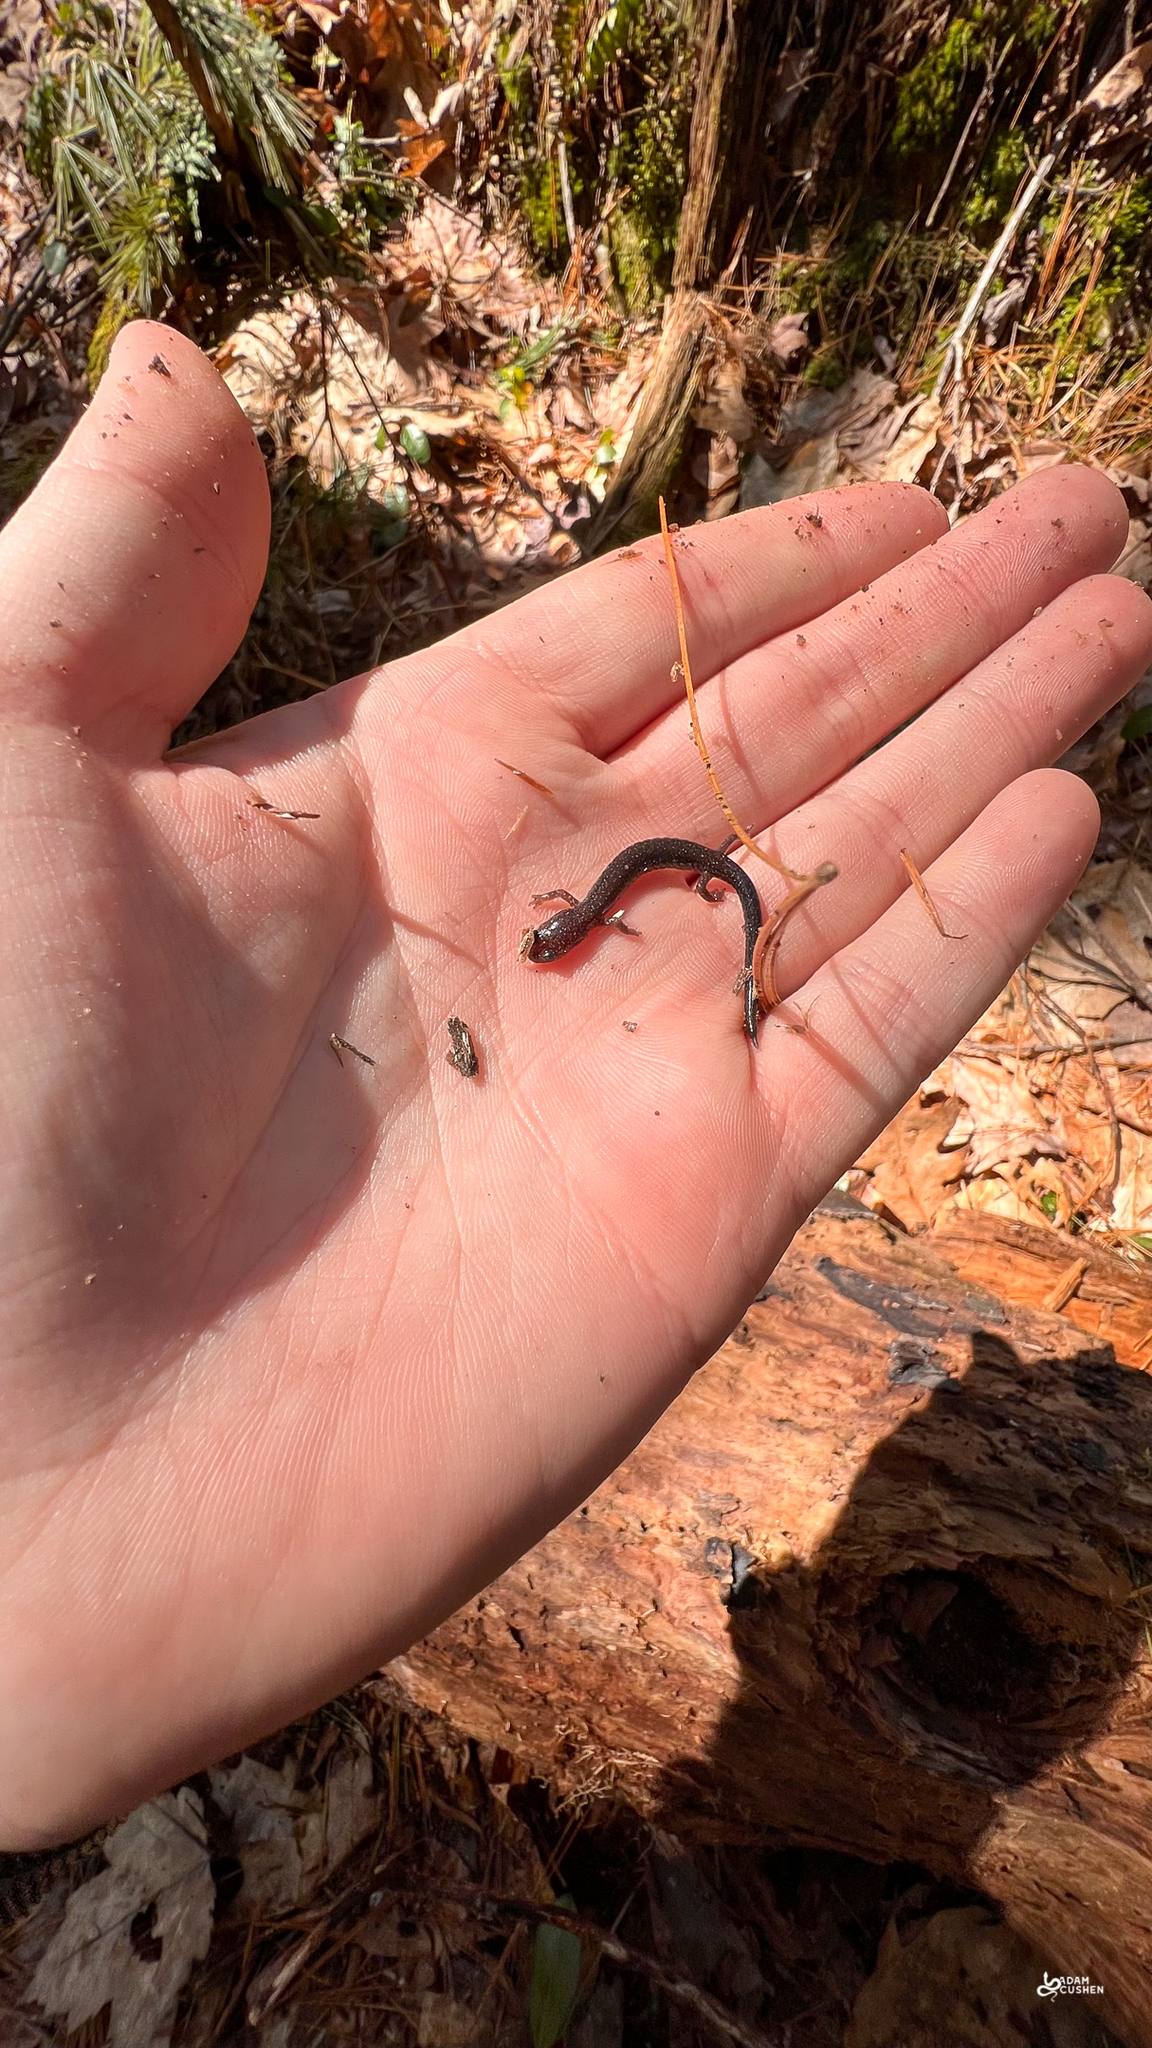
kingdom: Animalia
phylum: Chordata
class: Amphibia
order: Caudata
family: Plethodontidae
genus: Plethodon
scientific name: Plethodon cinereus
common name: Redback salamander
